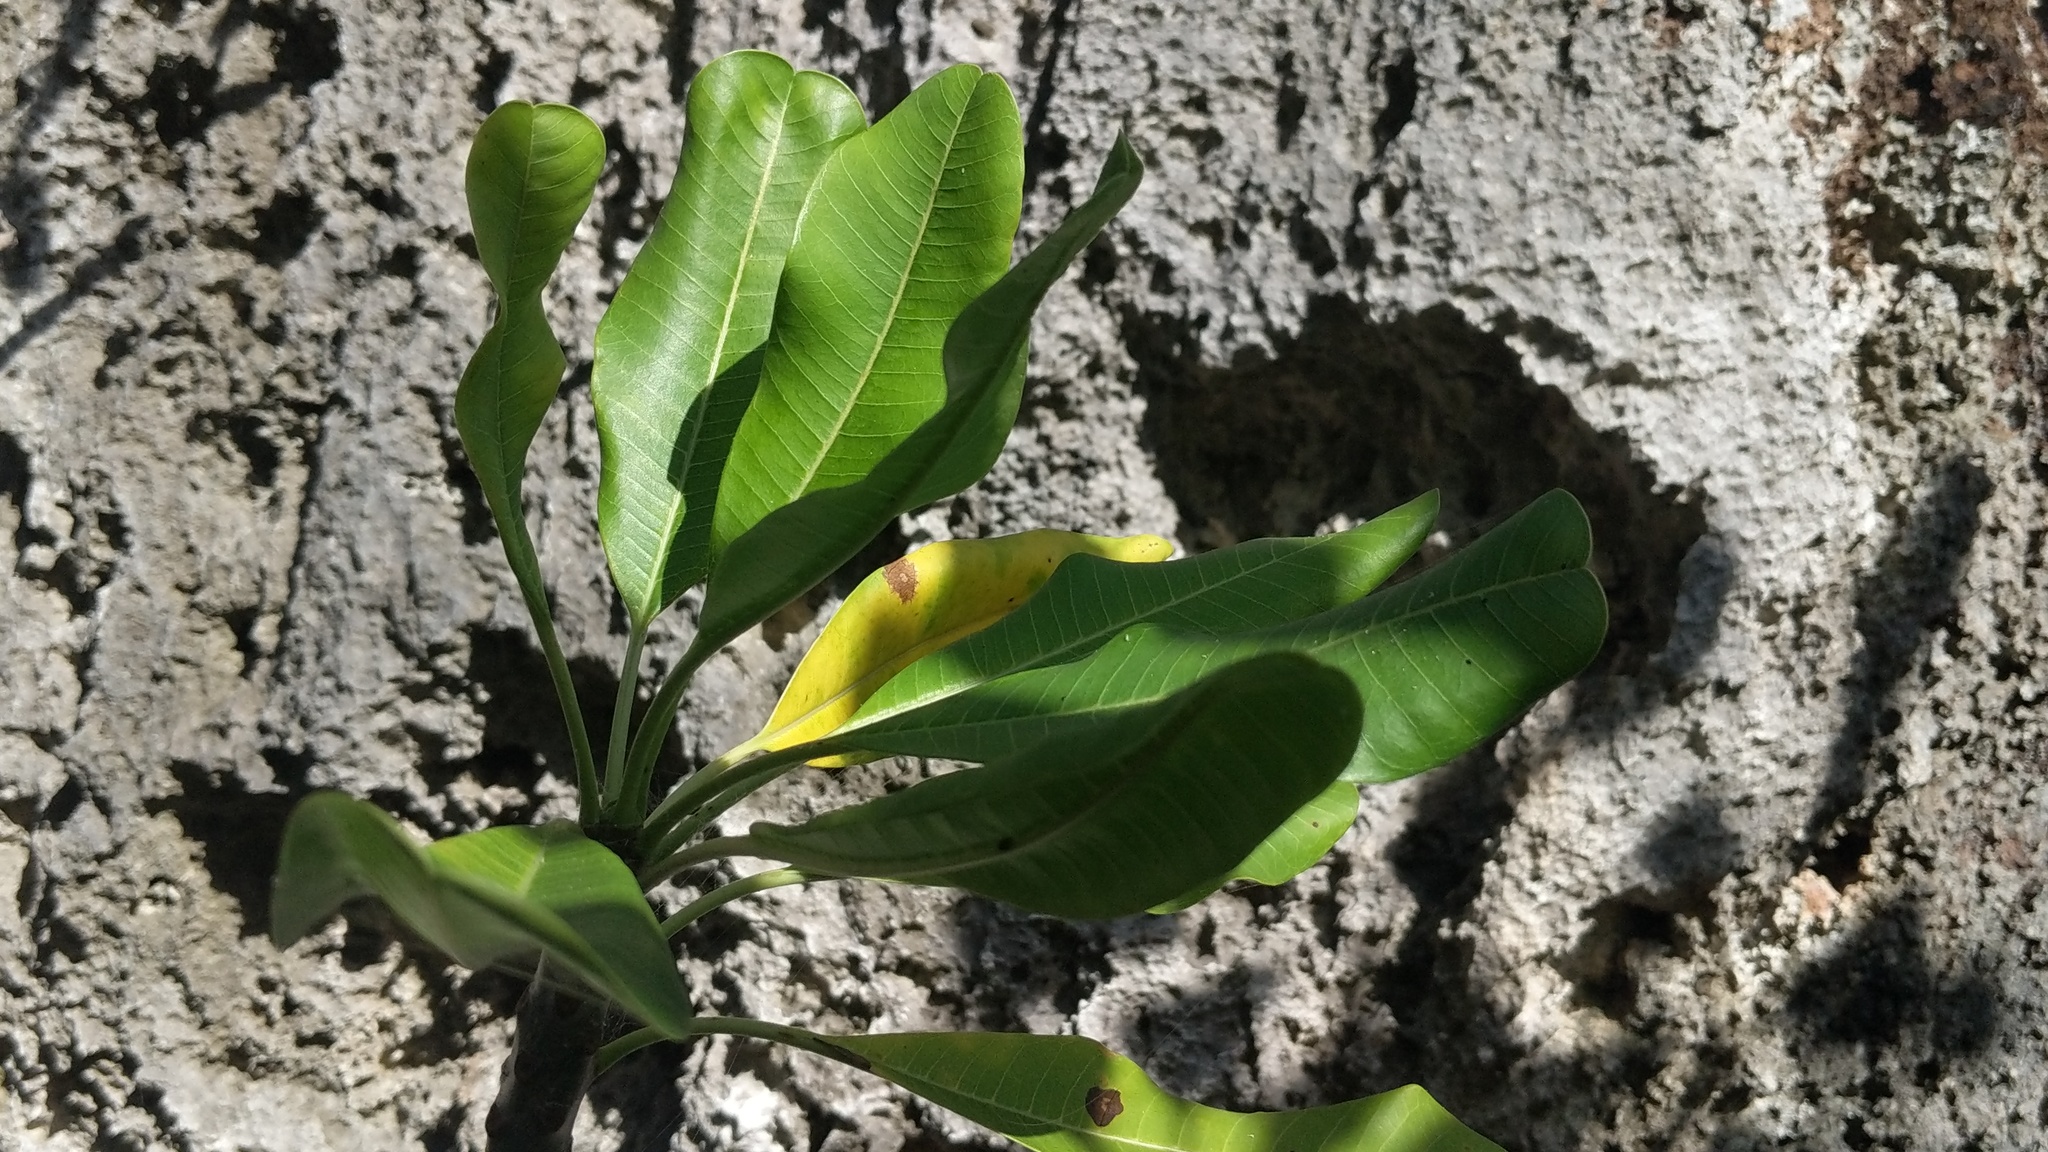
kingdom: Plantae
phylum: Tracheophyta
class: Magnoliopsida
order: Gentianales
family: Apocynaceae
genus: Plumeria
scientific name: Plumeria obtusa
